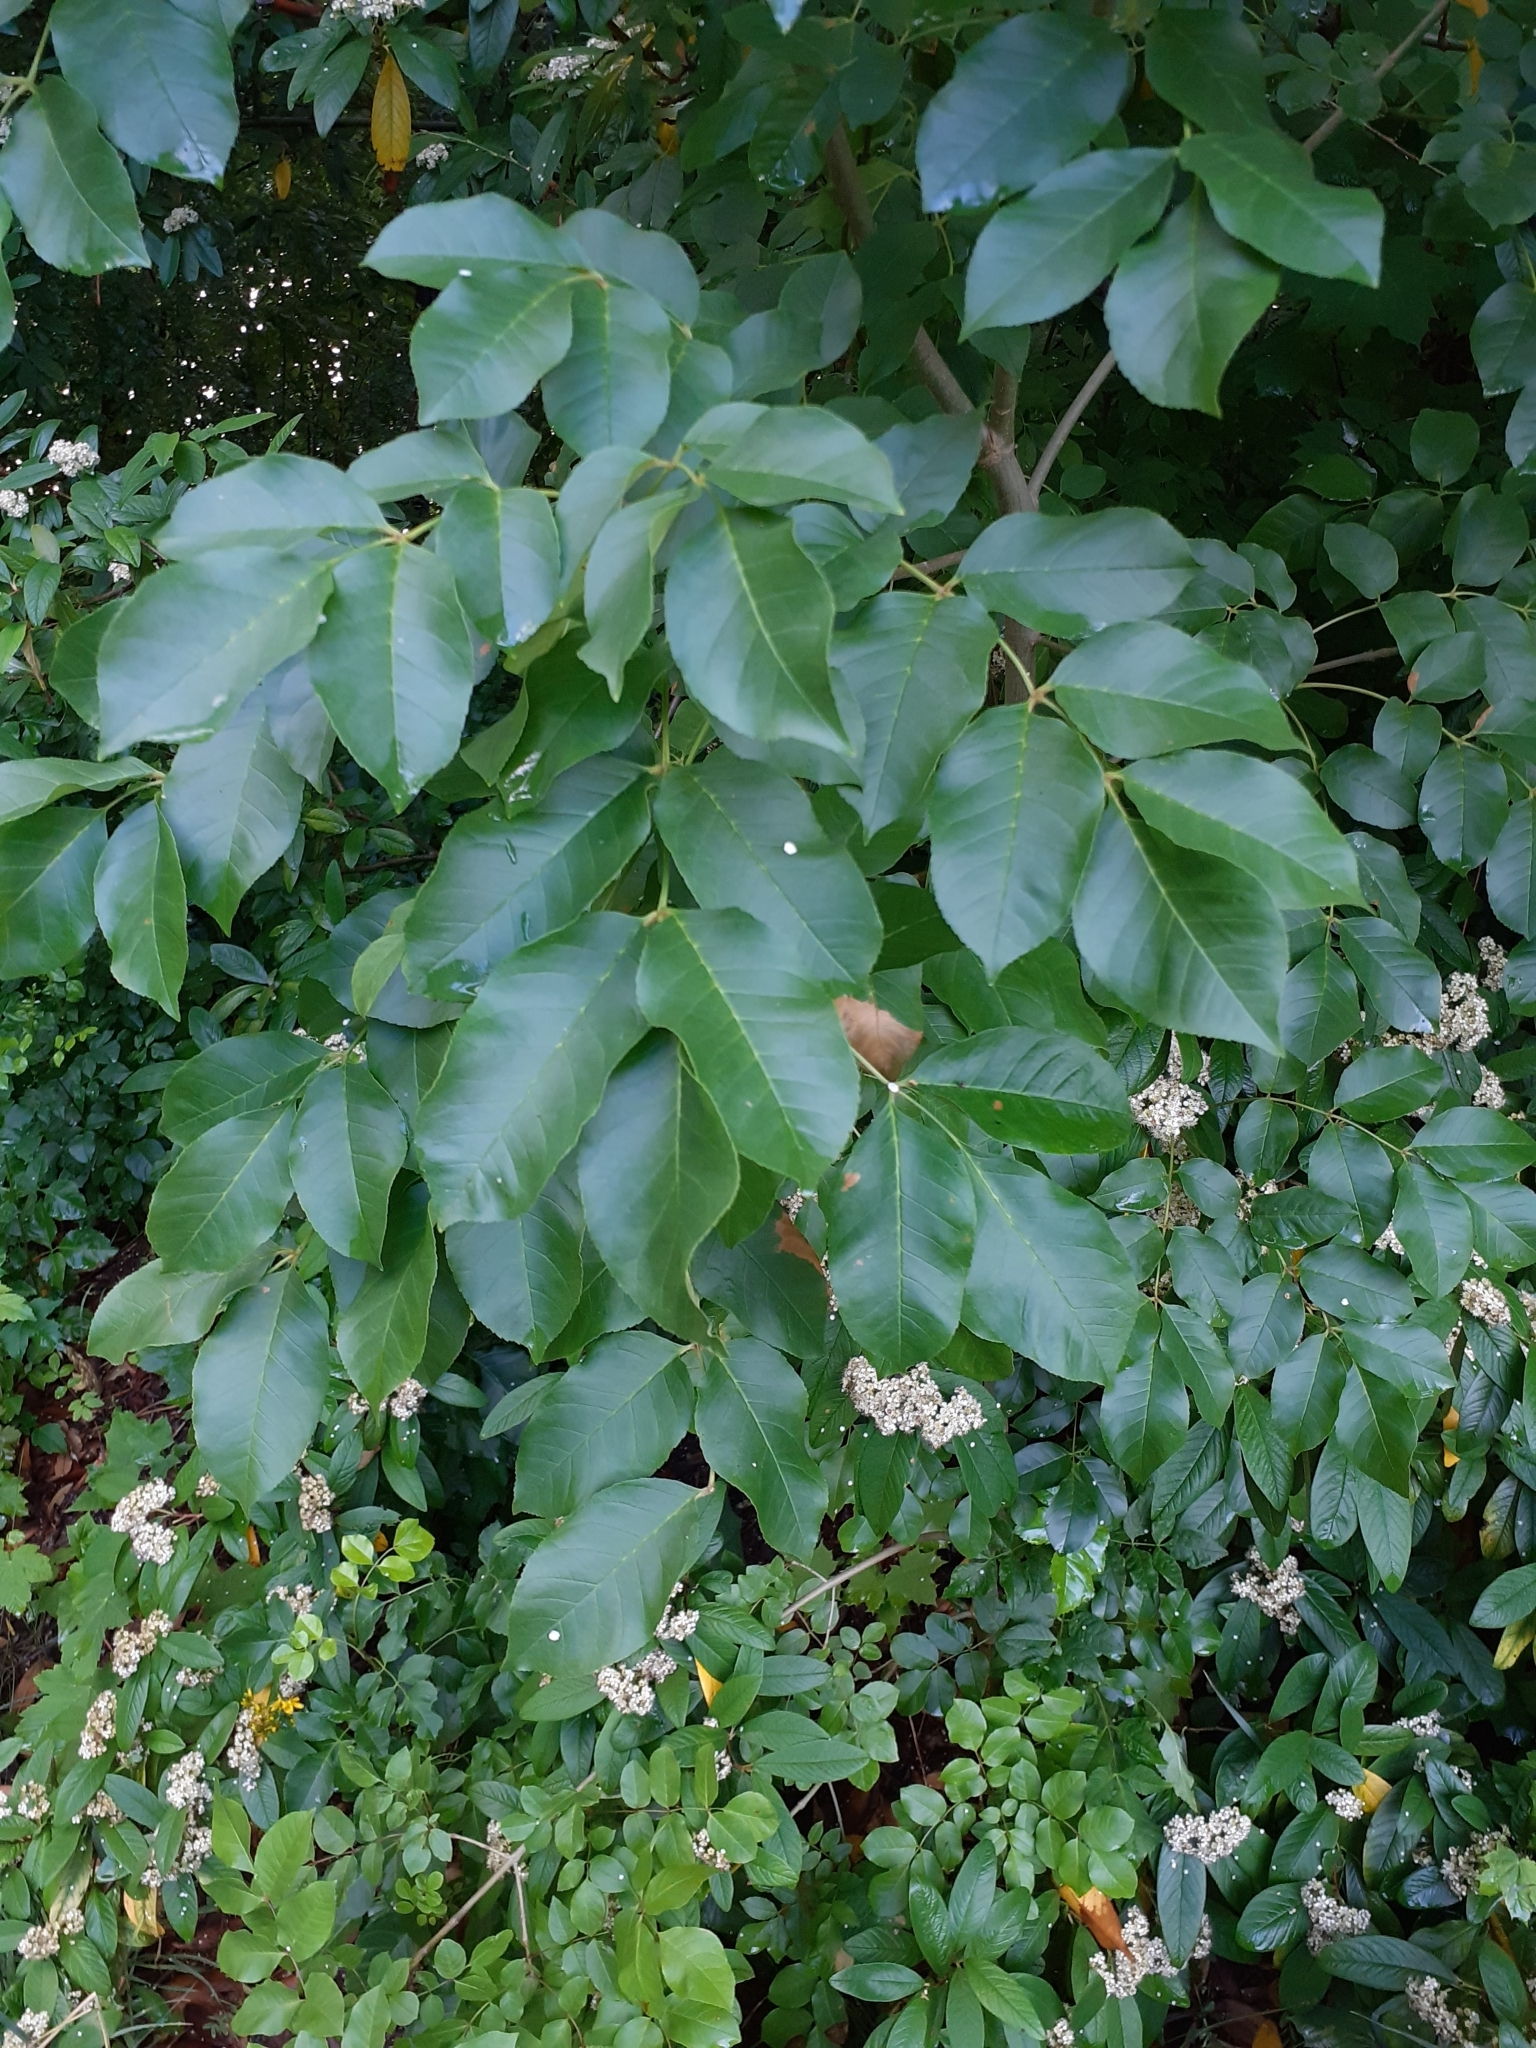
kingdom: Plantae
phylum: Tracheophyta
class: Magnoliopsida
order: Lamiales
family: Oleaceae
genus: Fraxinus
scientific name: Fraxinus ornus
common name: Manna ash
